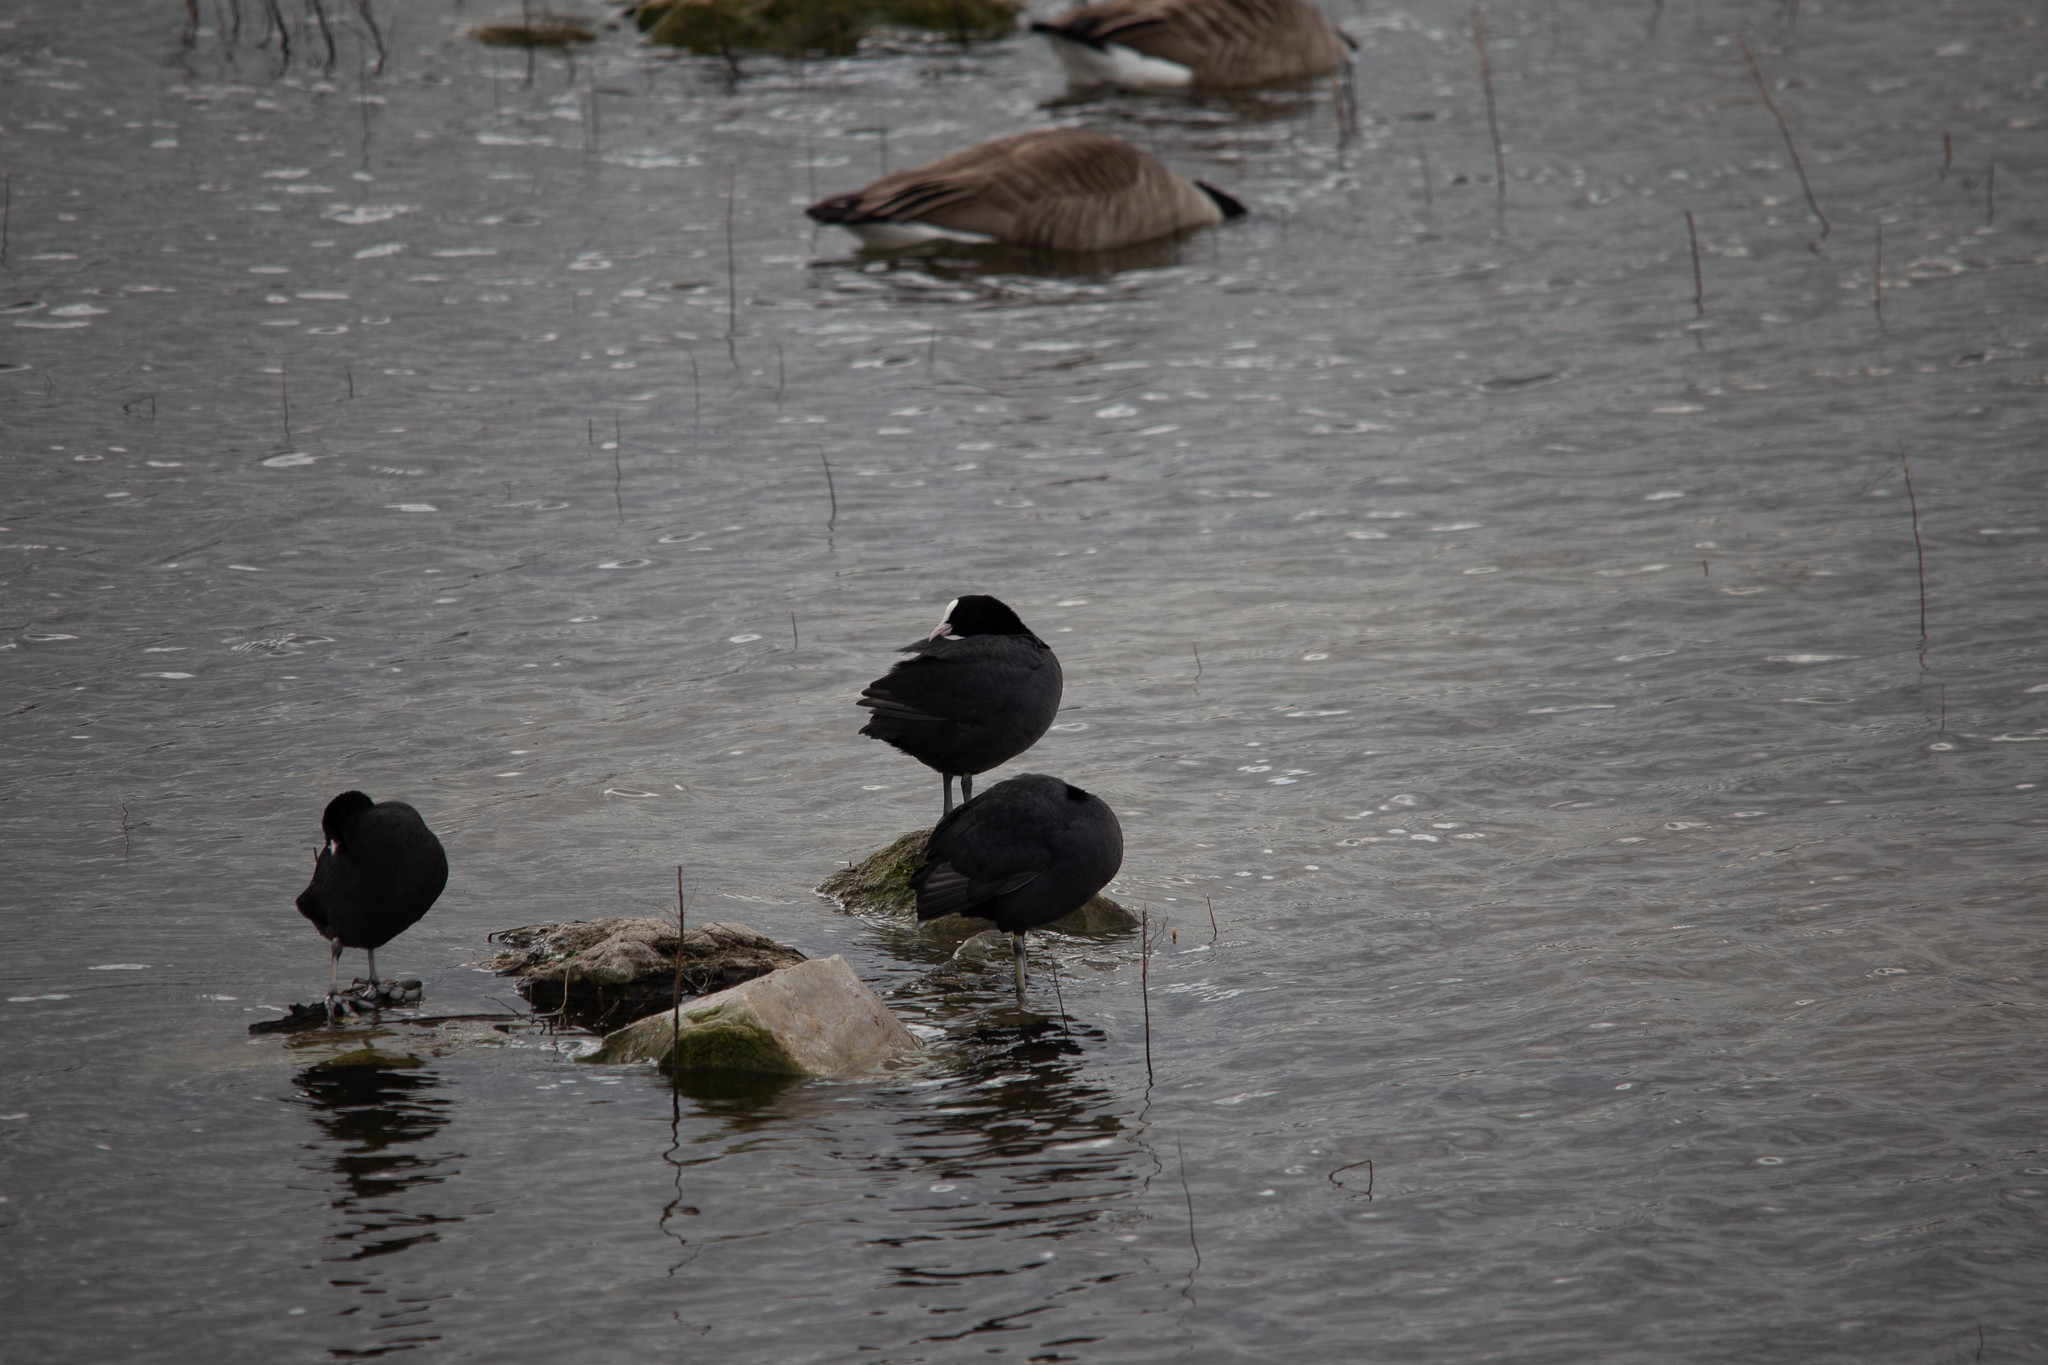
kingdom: Animalia
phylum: Chordata
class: Aves
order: Gruiformes
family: Rallidae
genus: Fulica
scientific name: Fulica atra
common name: Eurasian coot
